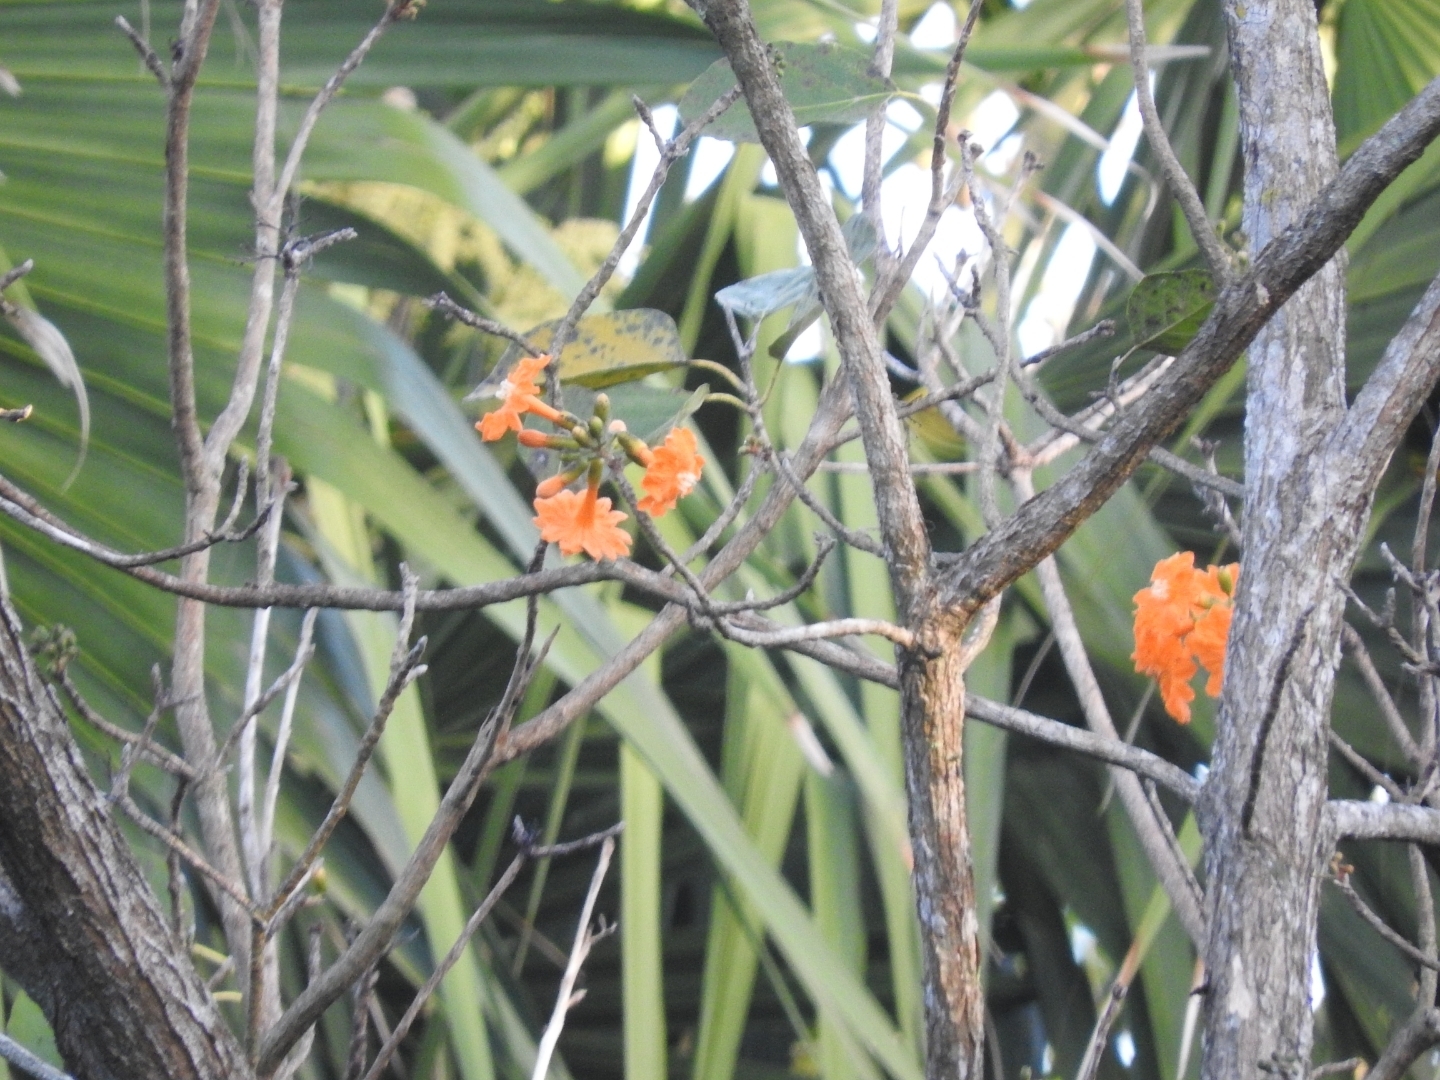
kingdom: Plantae
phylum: Tracheophyta
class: Magnoliopsida
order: Boraginales
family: Cordiaceae
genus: Cordia
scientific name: Cordia dodecandra
